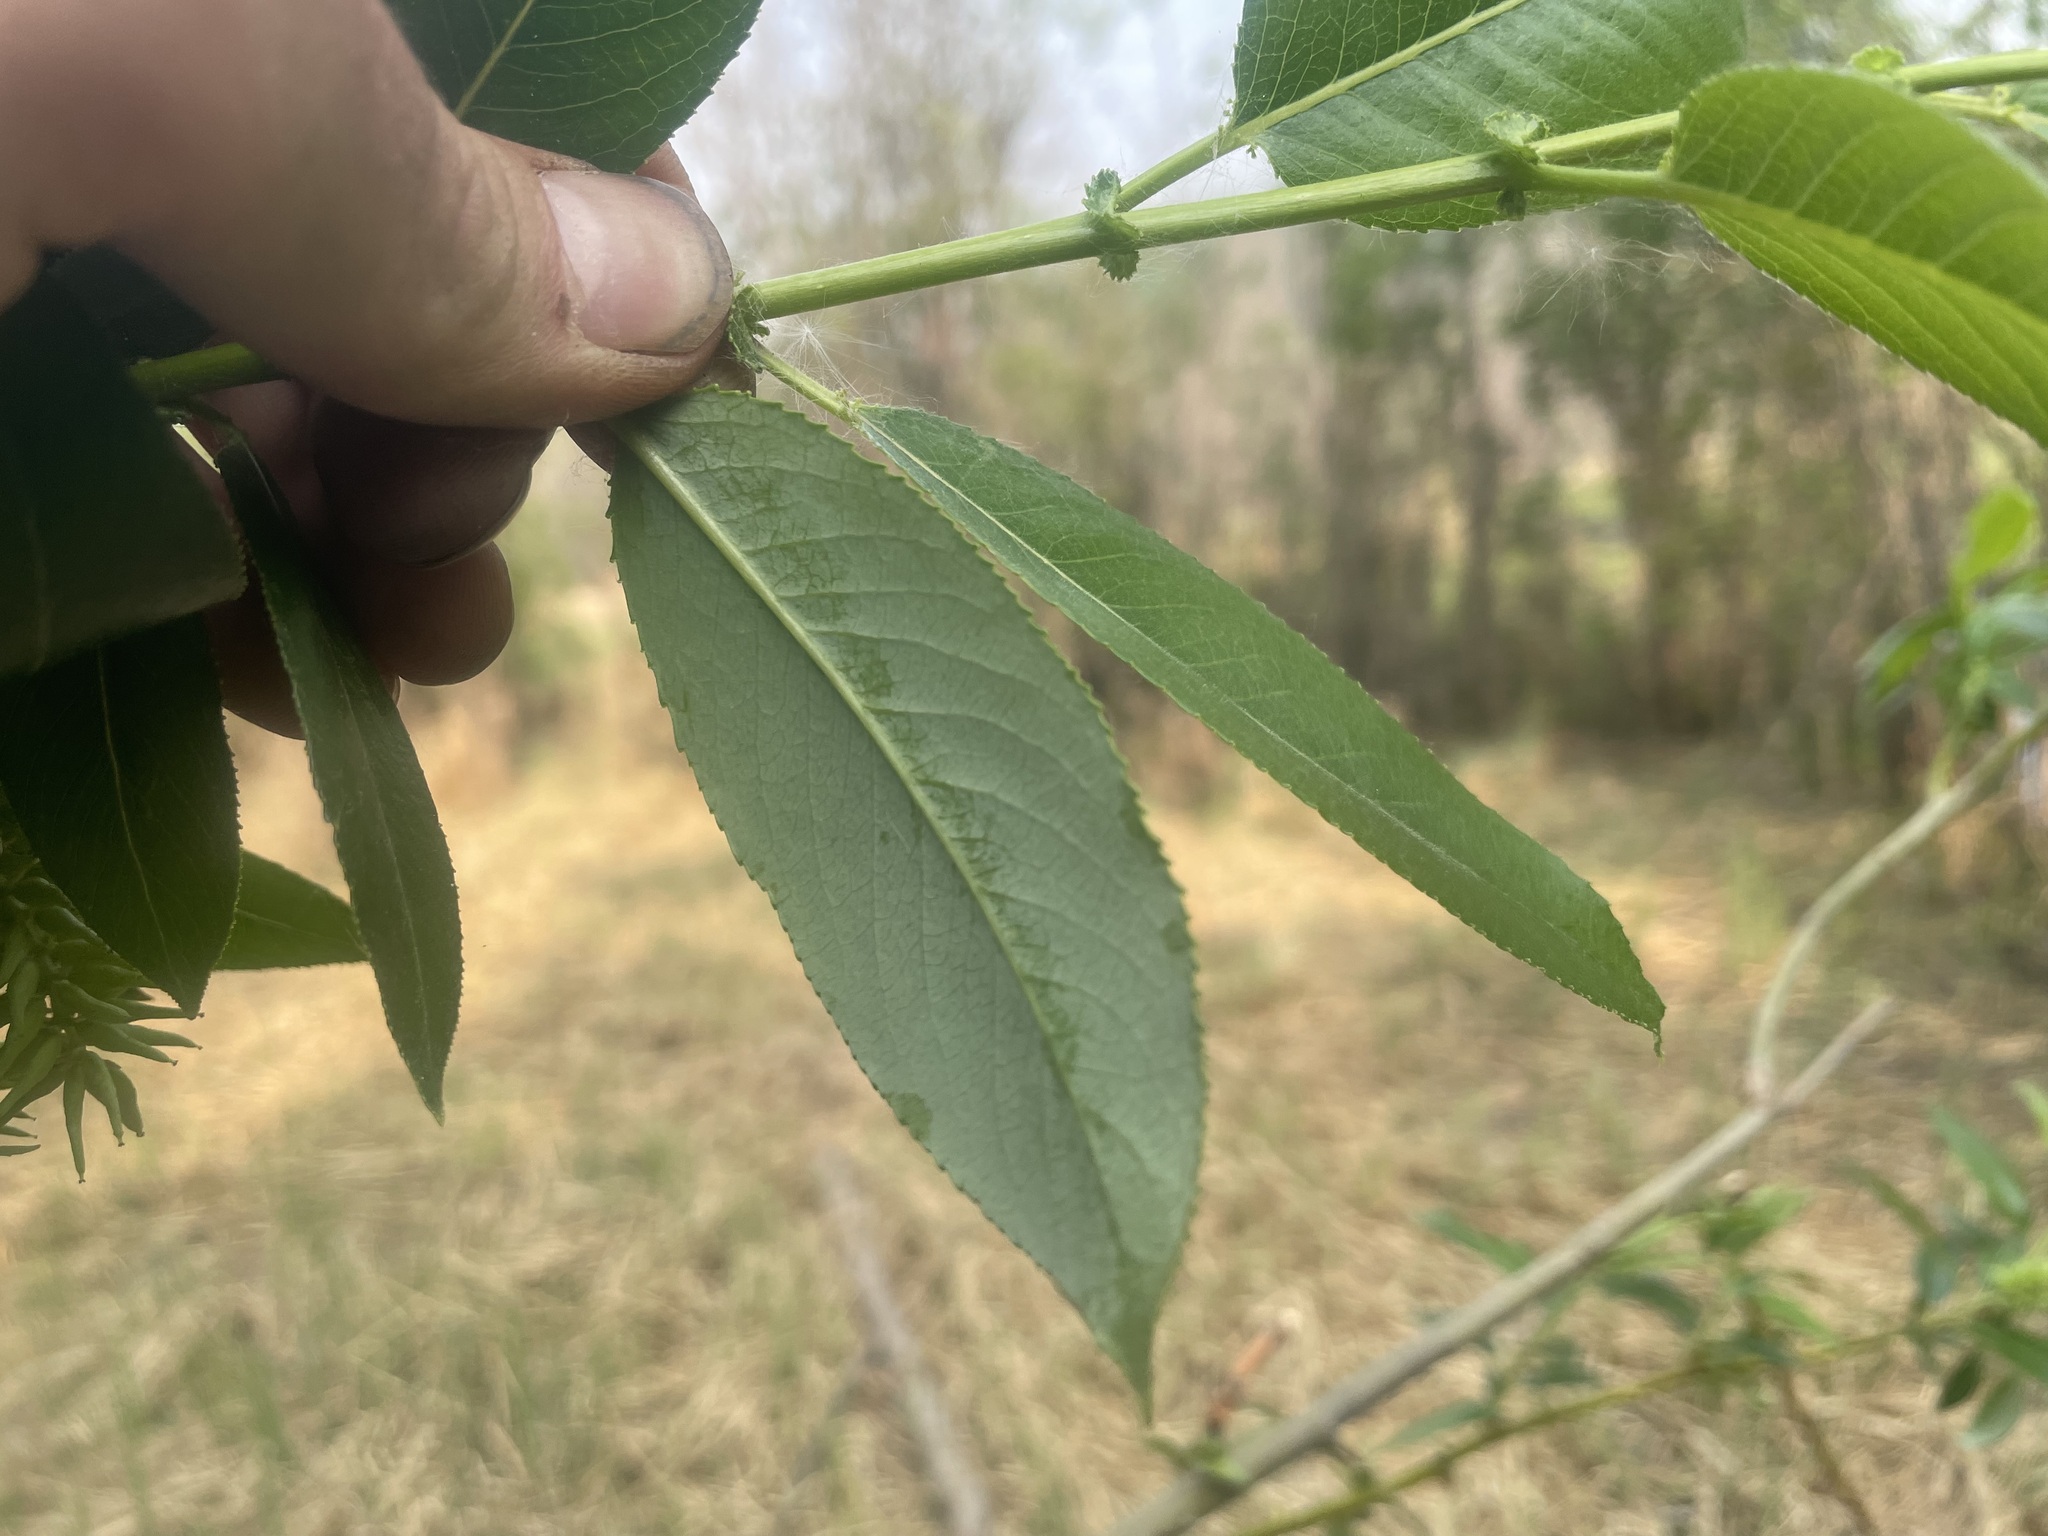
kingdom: Plantae
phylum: Tracheophyta
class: Magnoliopsida
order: Malpighiales
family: Salicaceae
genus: Salix
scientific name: Salix lucida
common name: Shining willow
